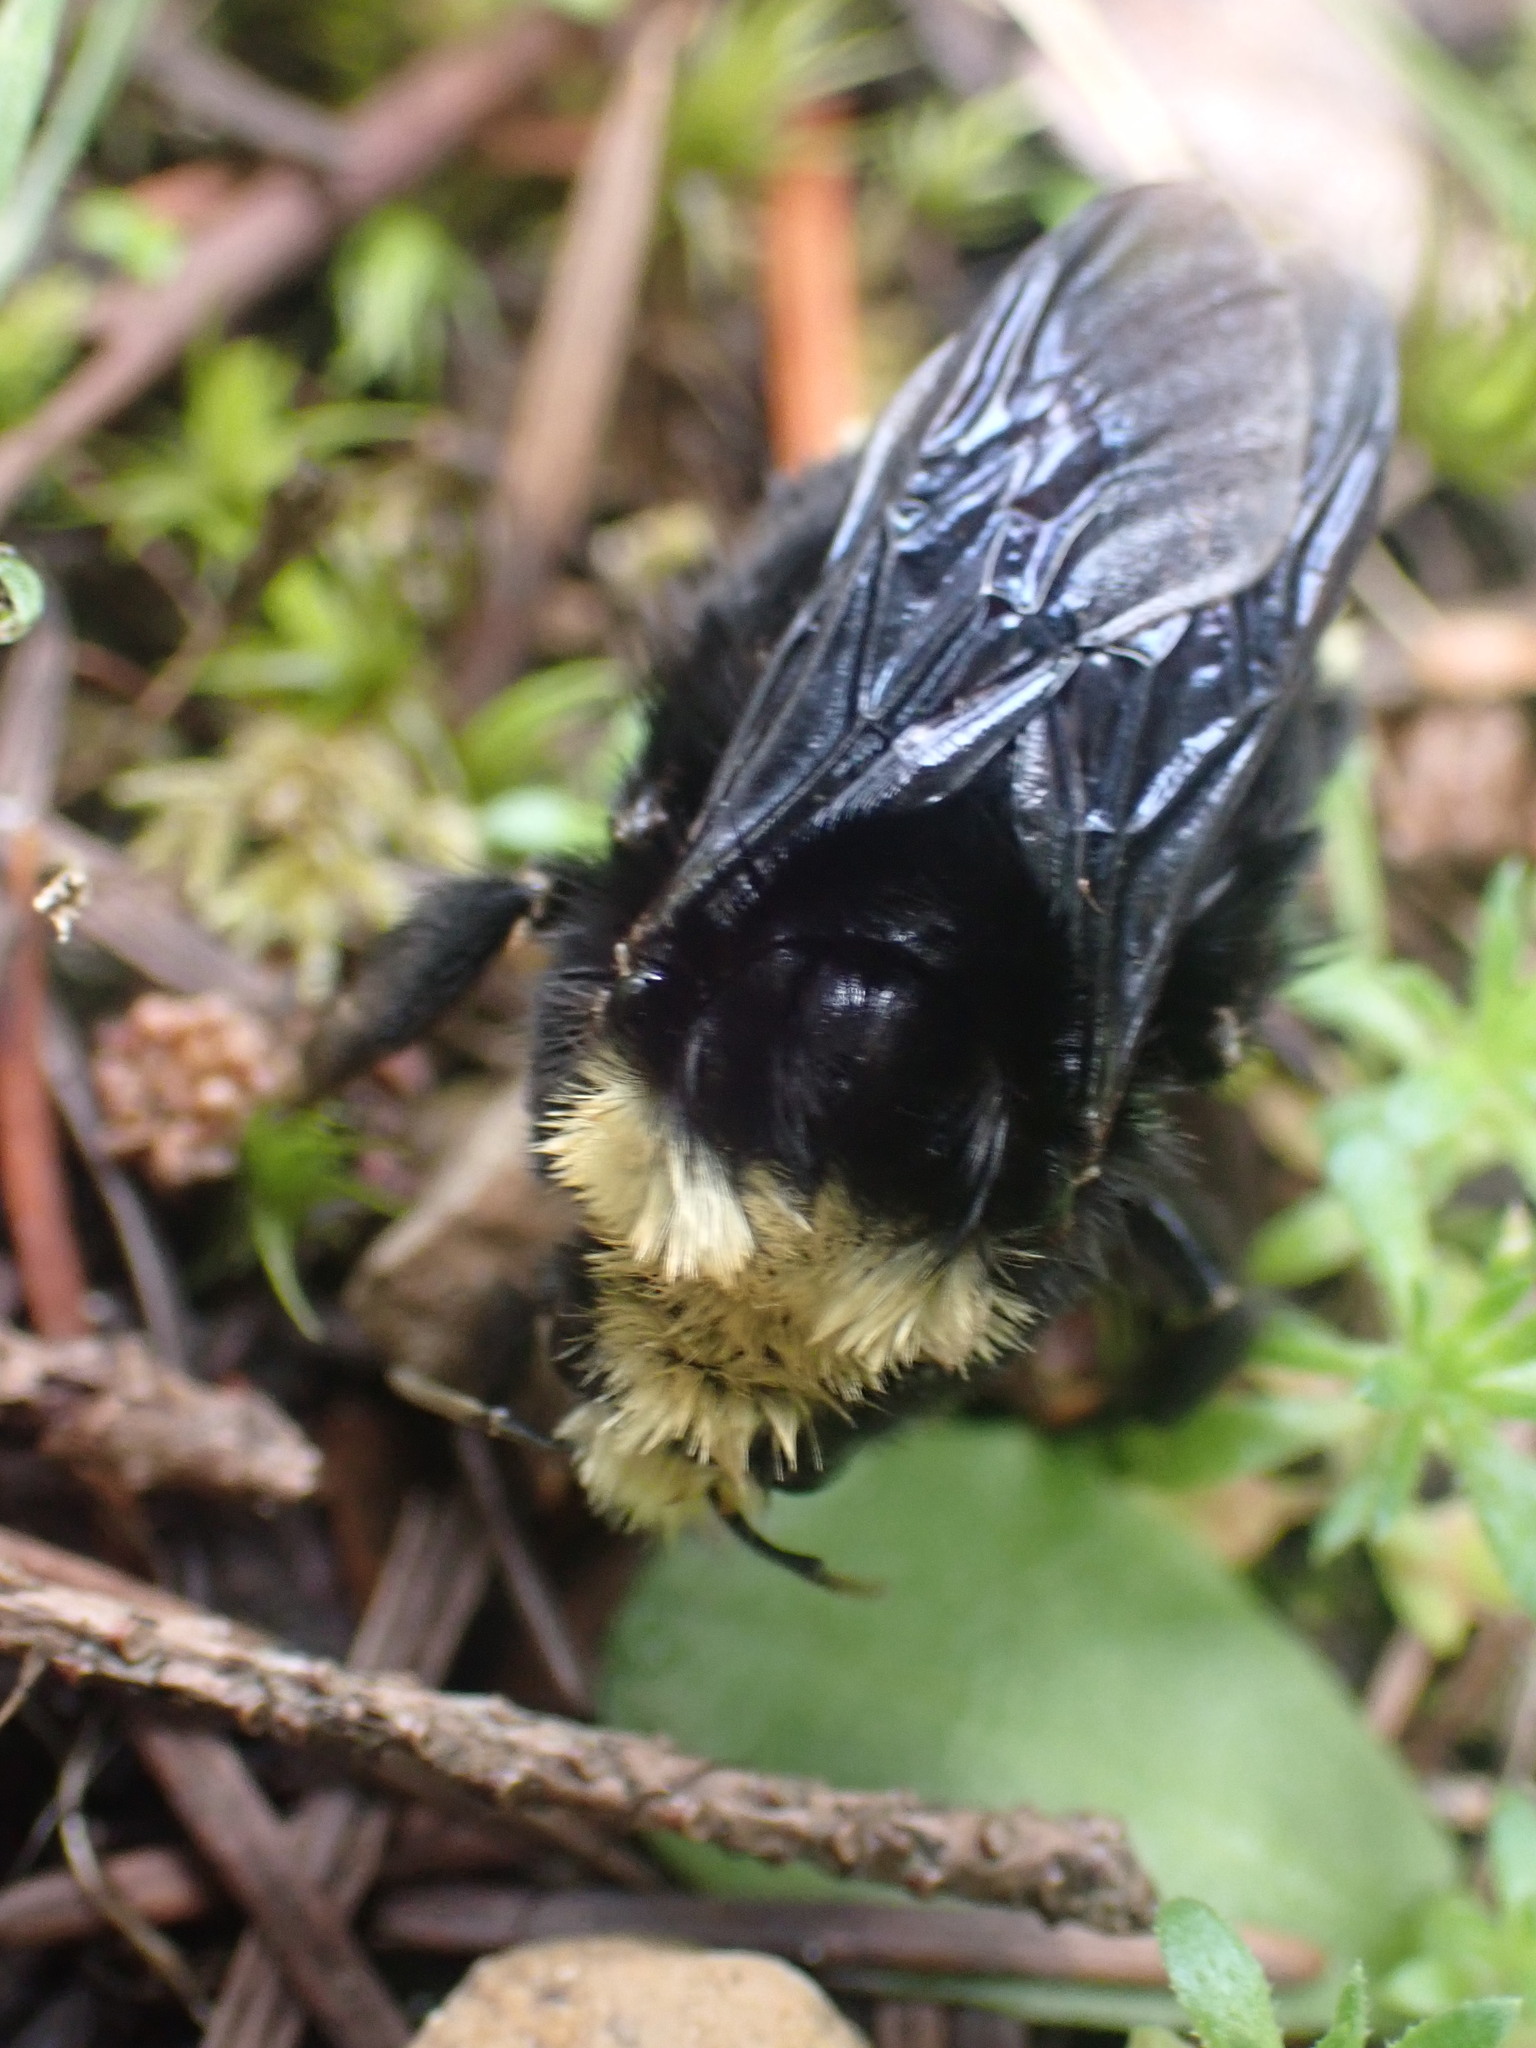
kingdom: Animalia
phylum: Arthropoda
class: Insecta
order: Hymenoptera
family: Apidae
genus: Bombus
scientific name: Bombus vosnesenskii
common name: Vosnesensky bumble bee
